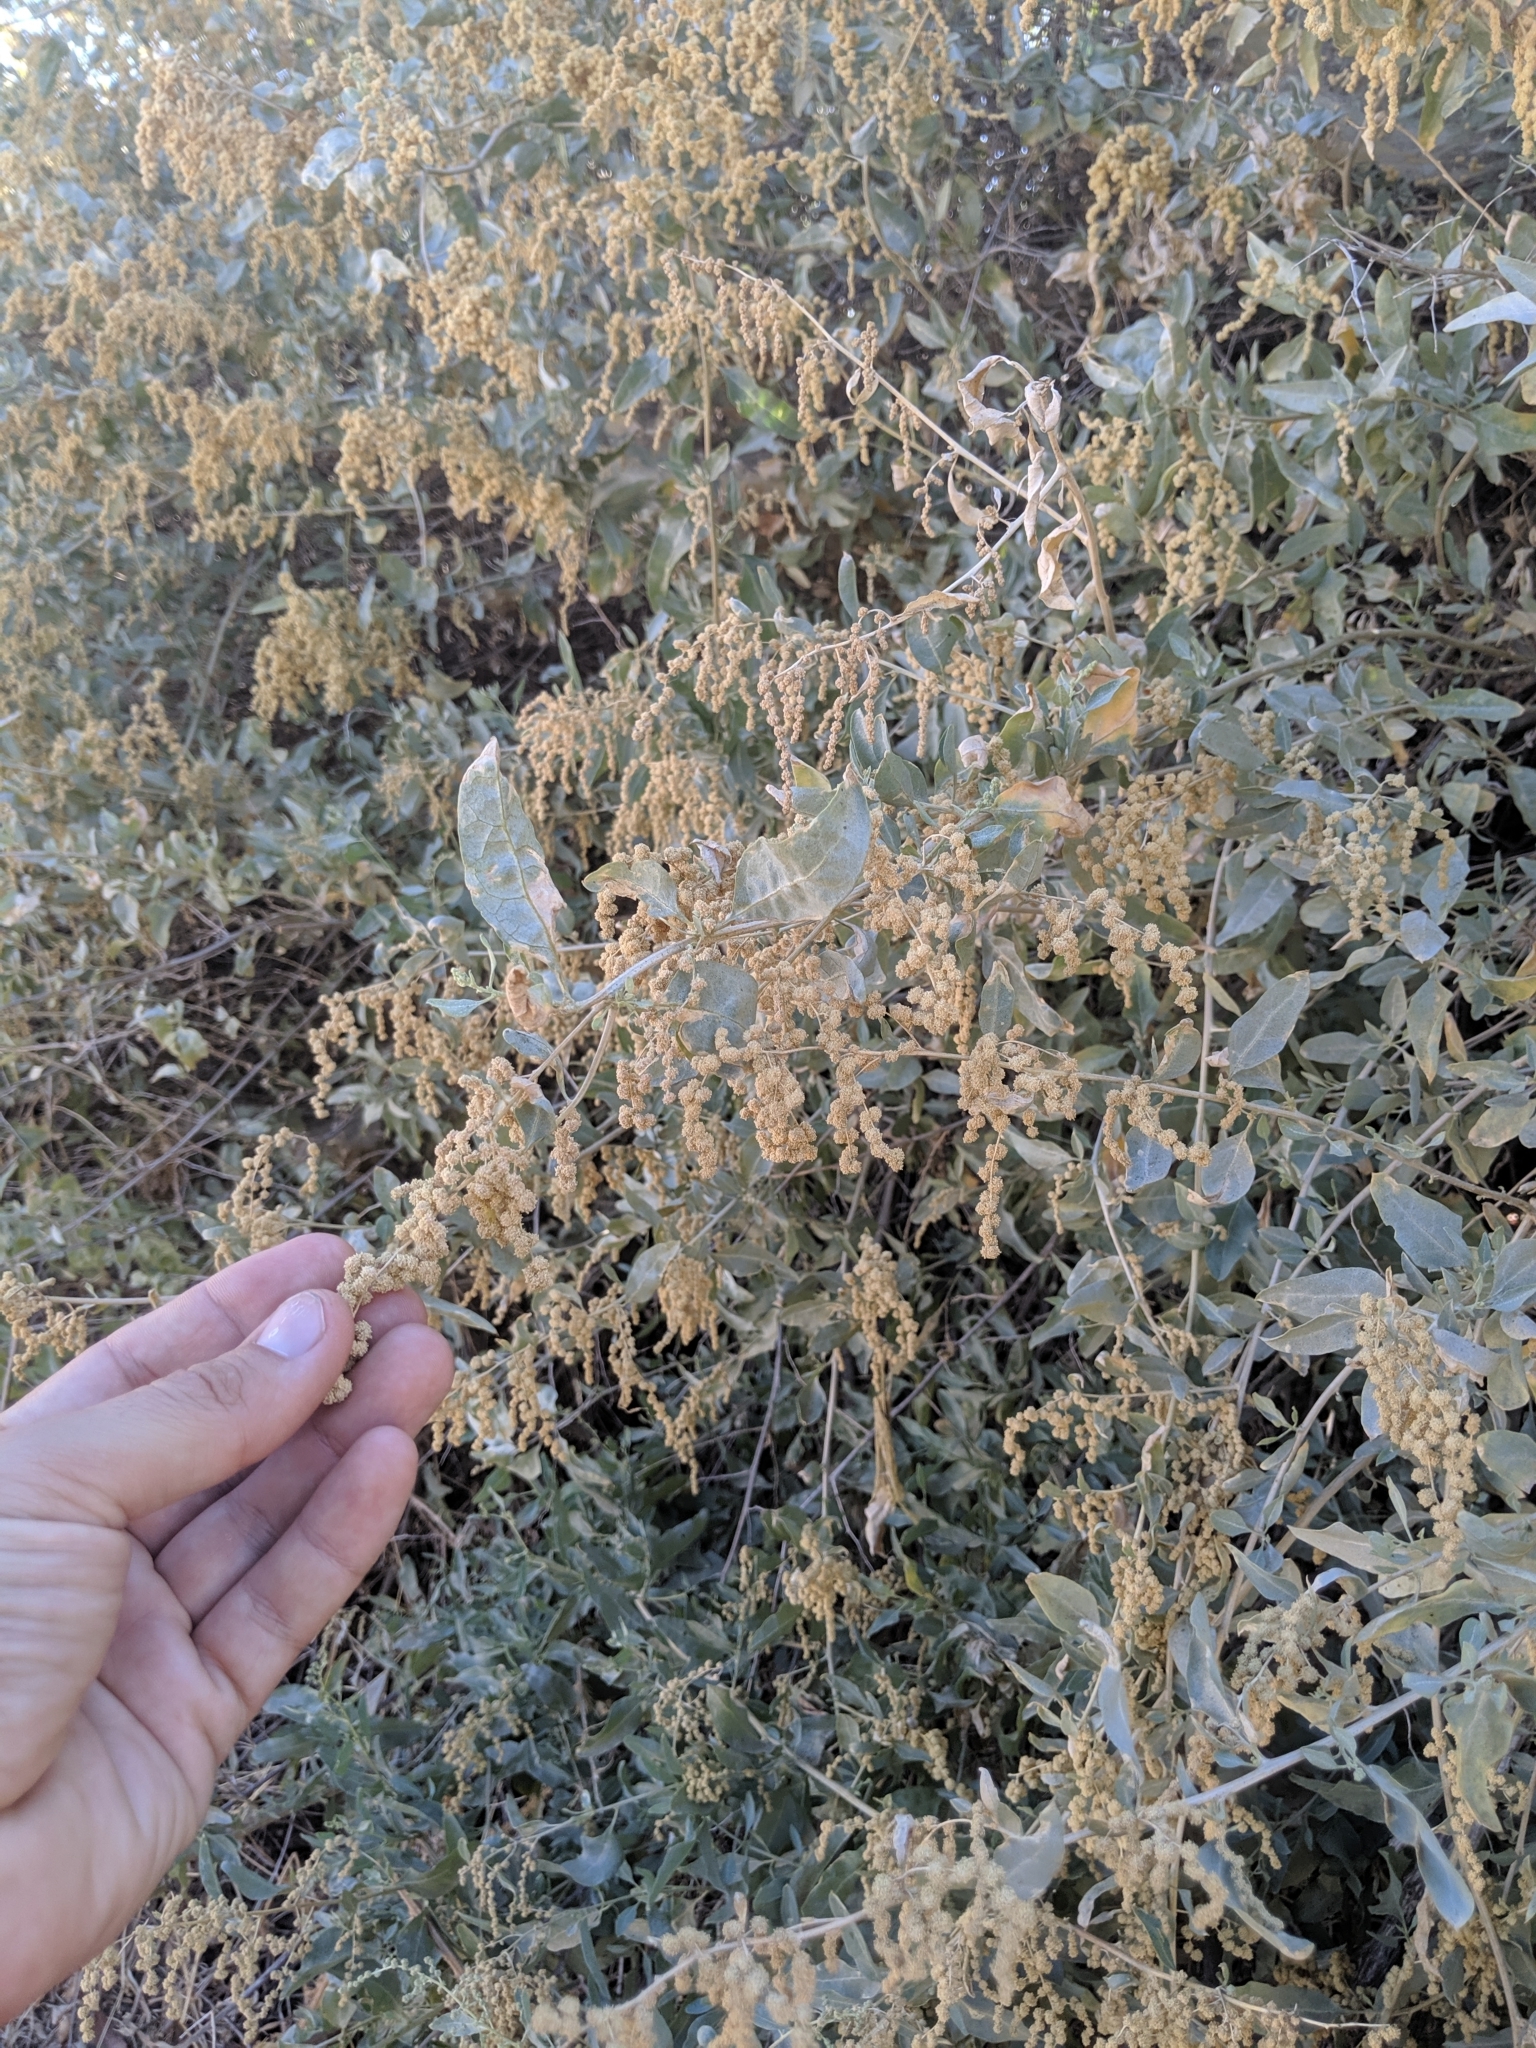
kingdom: Plantae
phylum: Tracheophyta
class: Magnoliopsida
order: Caryophyllales
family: Amaranthaceae
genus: Atriplex
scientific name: Atriplex lentiformis
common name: Big saltbush
